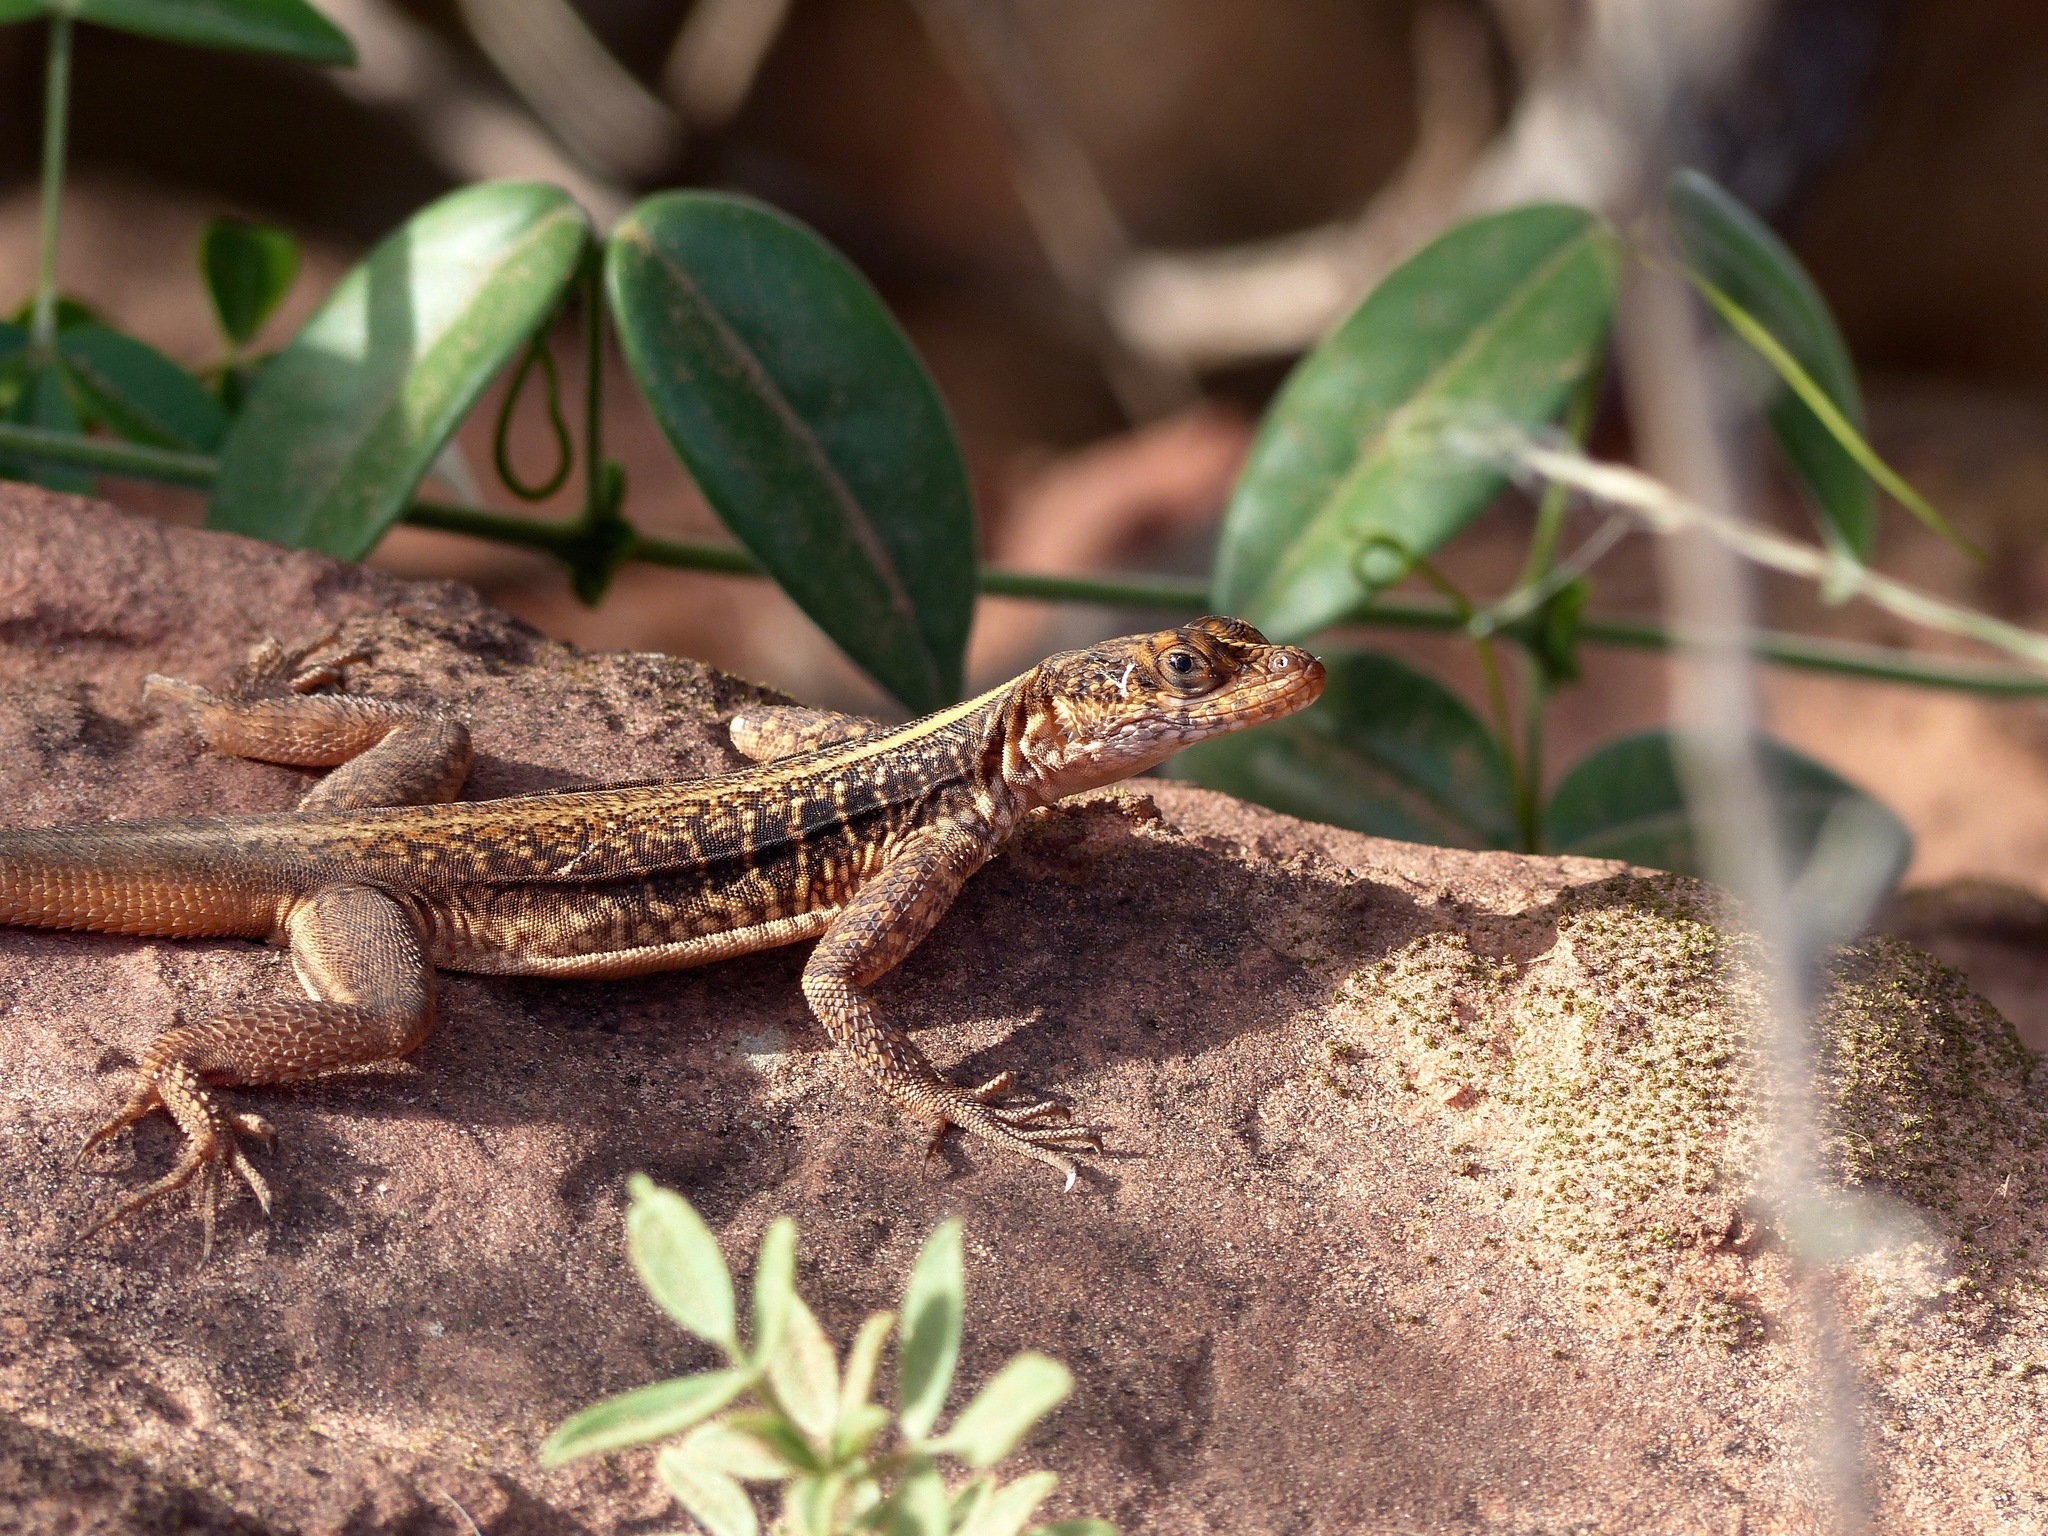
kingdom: Animalia
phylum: Chordata
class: Squamata
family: Tropiduridae
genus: Tropidurus
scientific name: Tropidurus semitaeniatus
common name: Striped lava lizard
